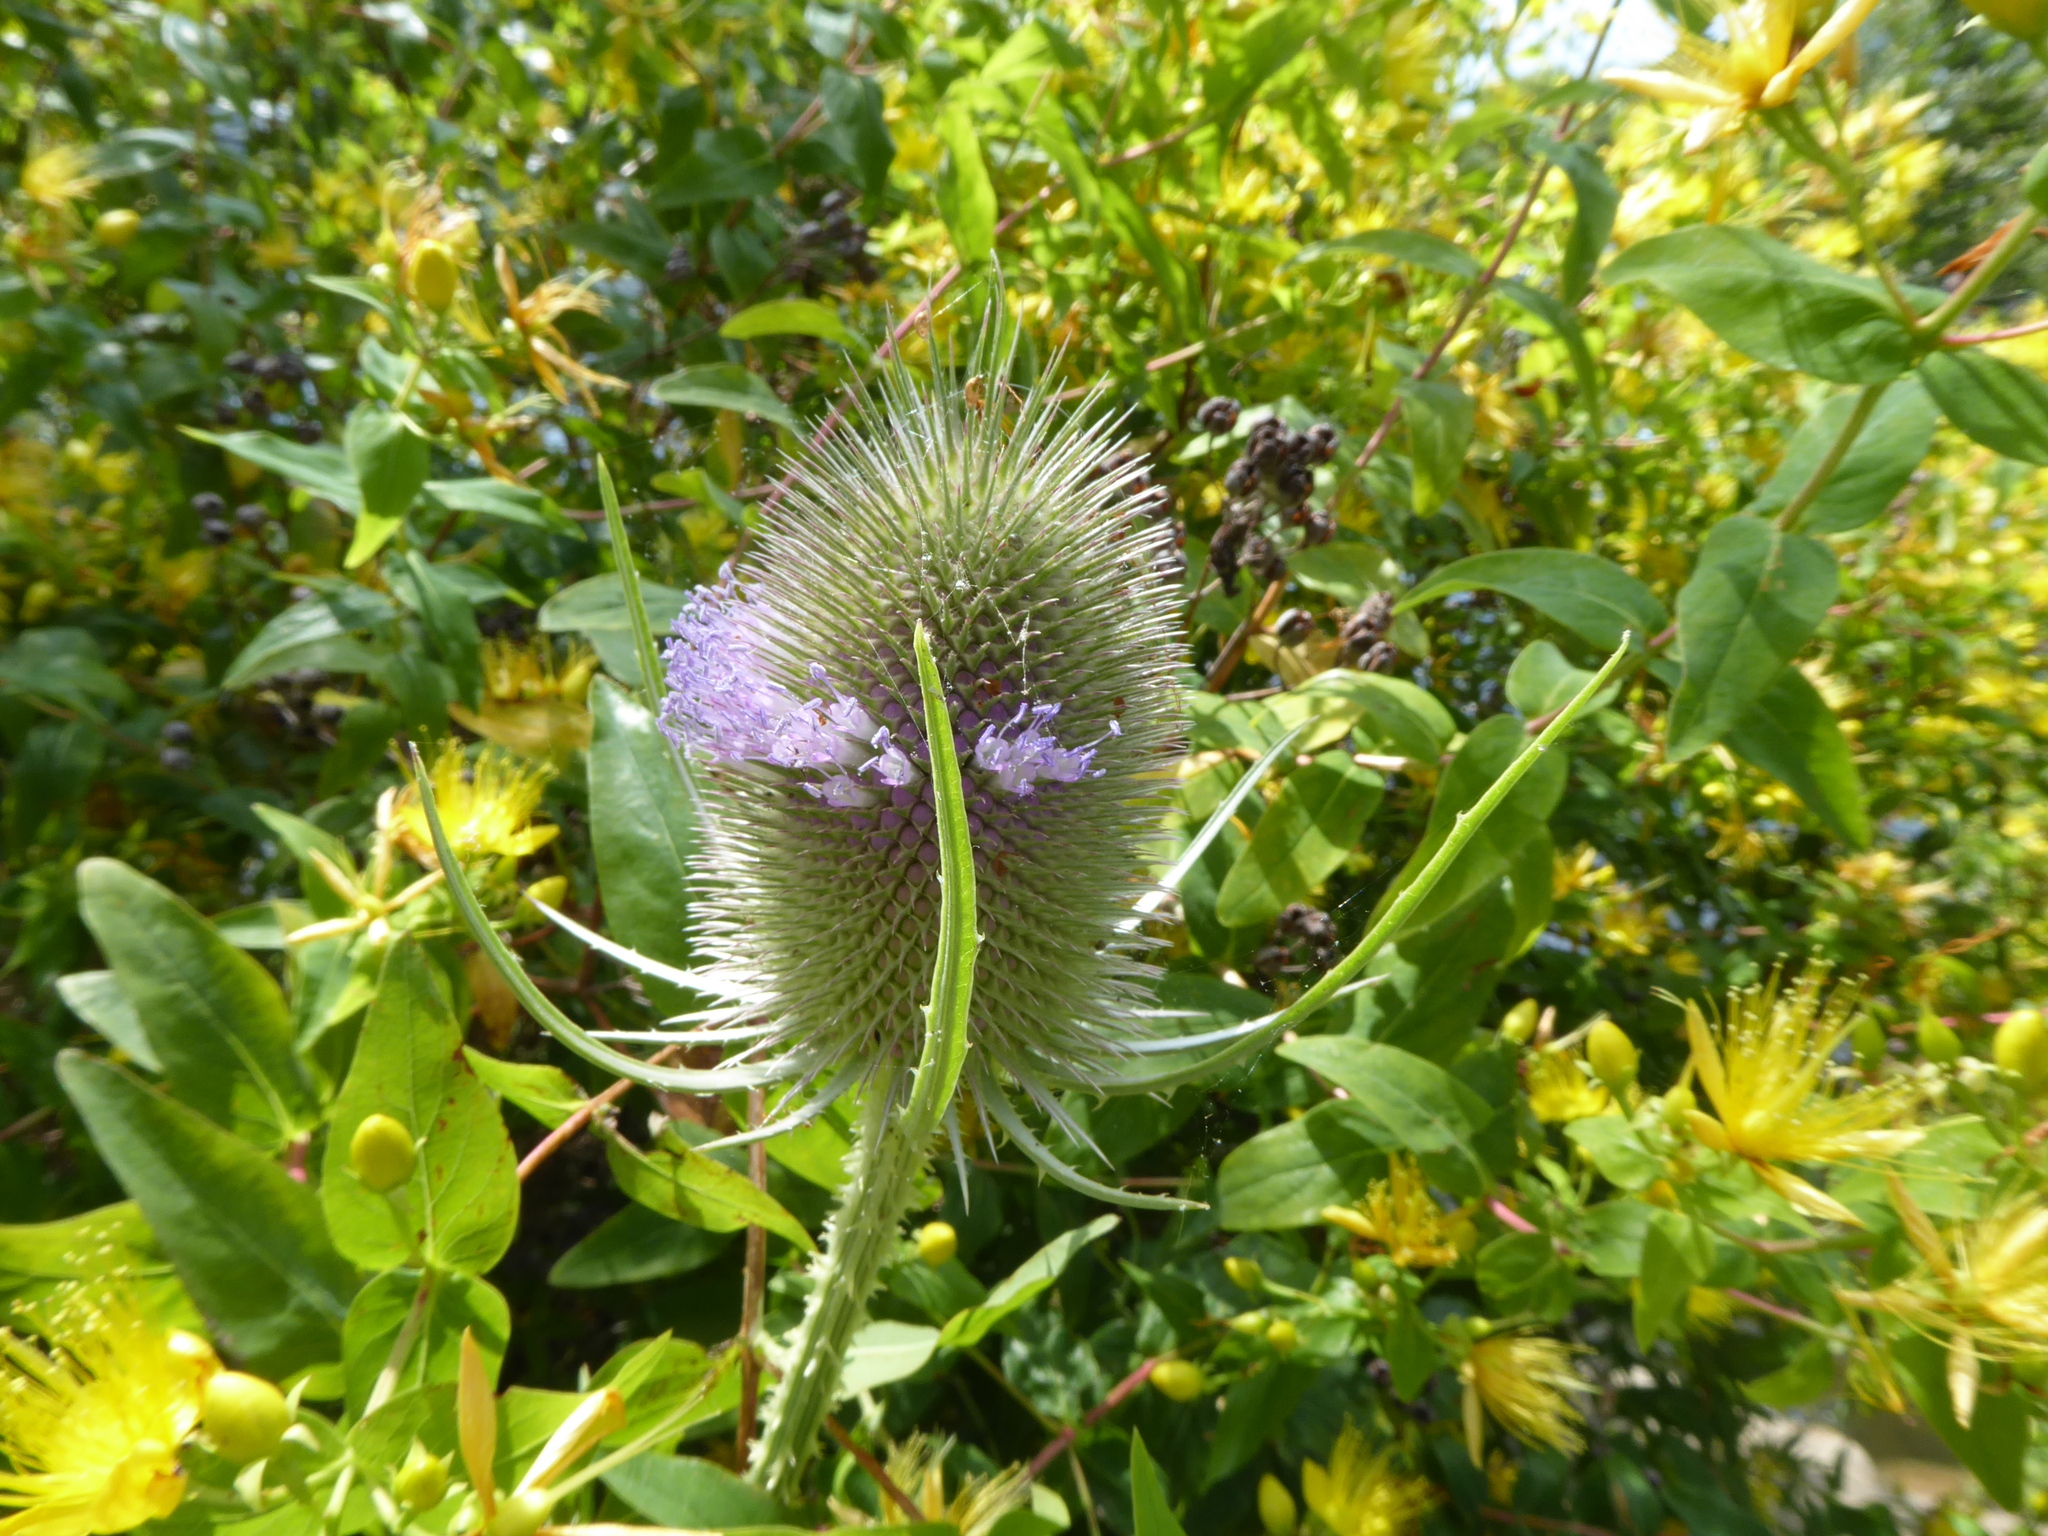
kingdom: Plantae
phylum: Tracheophyta
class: Magnoliopsida
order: Dipsacales
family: Caprifoliaceae
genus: Dipsacus
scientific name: Dipsacus fullonum
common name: Teasel
